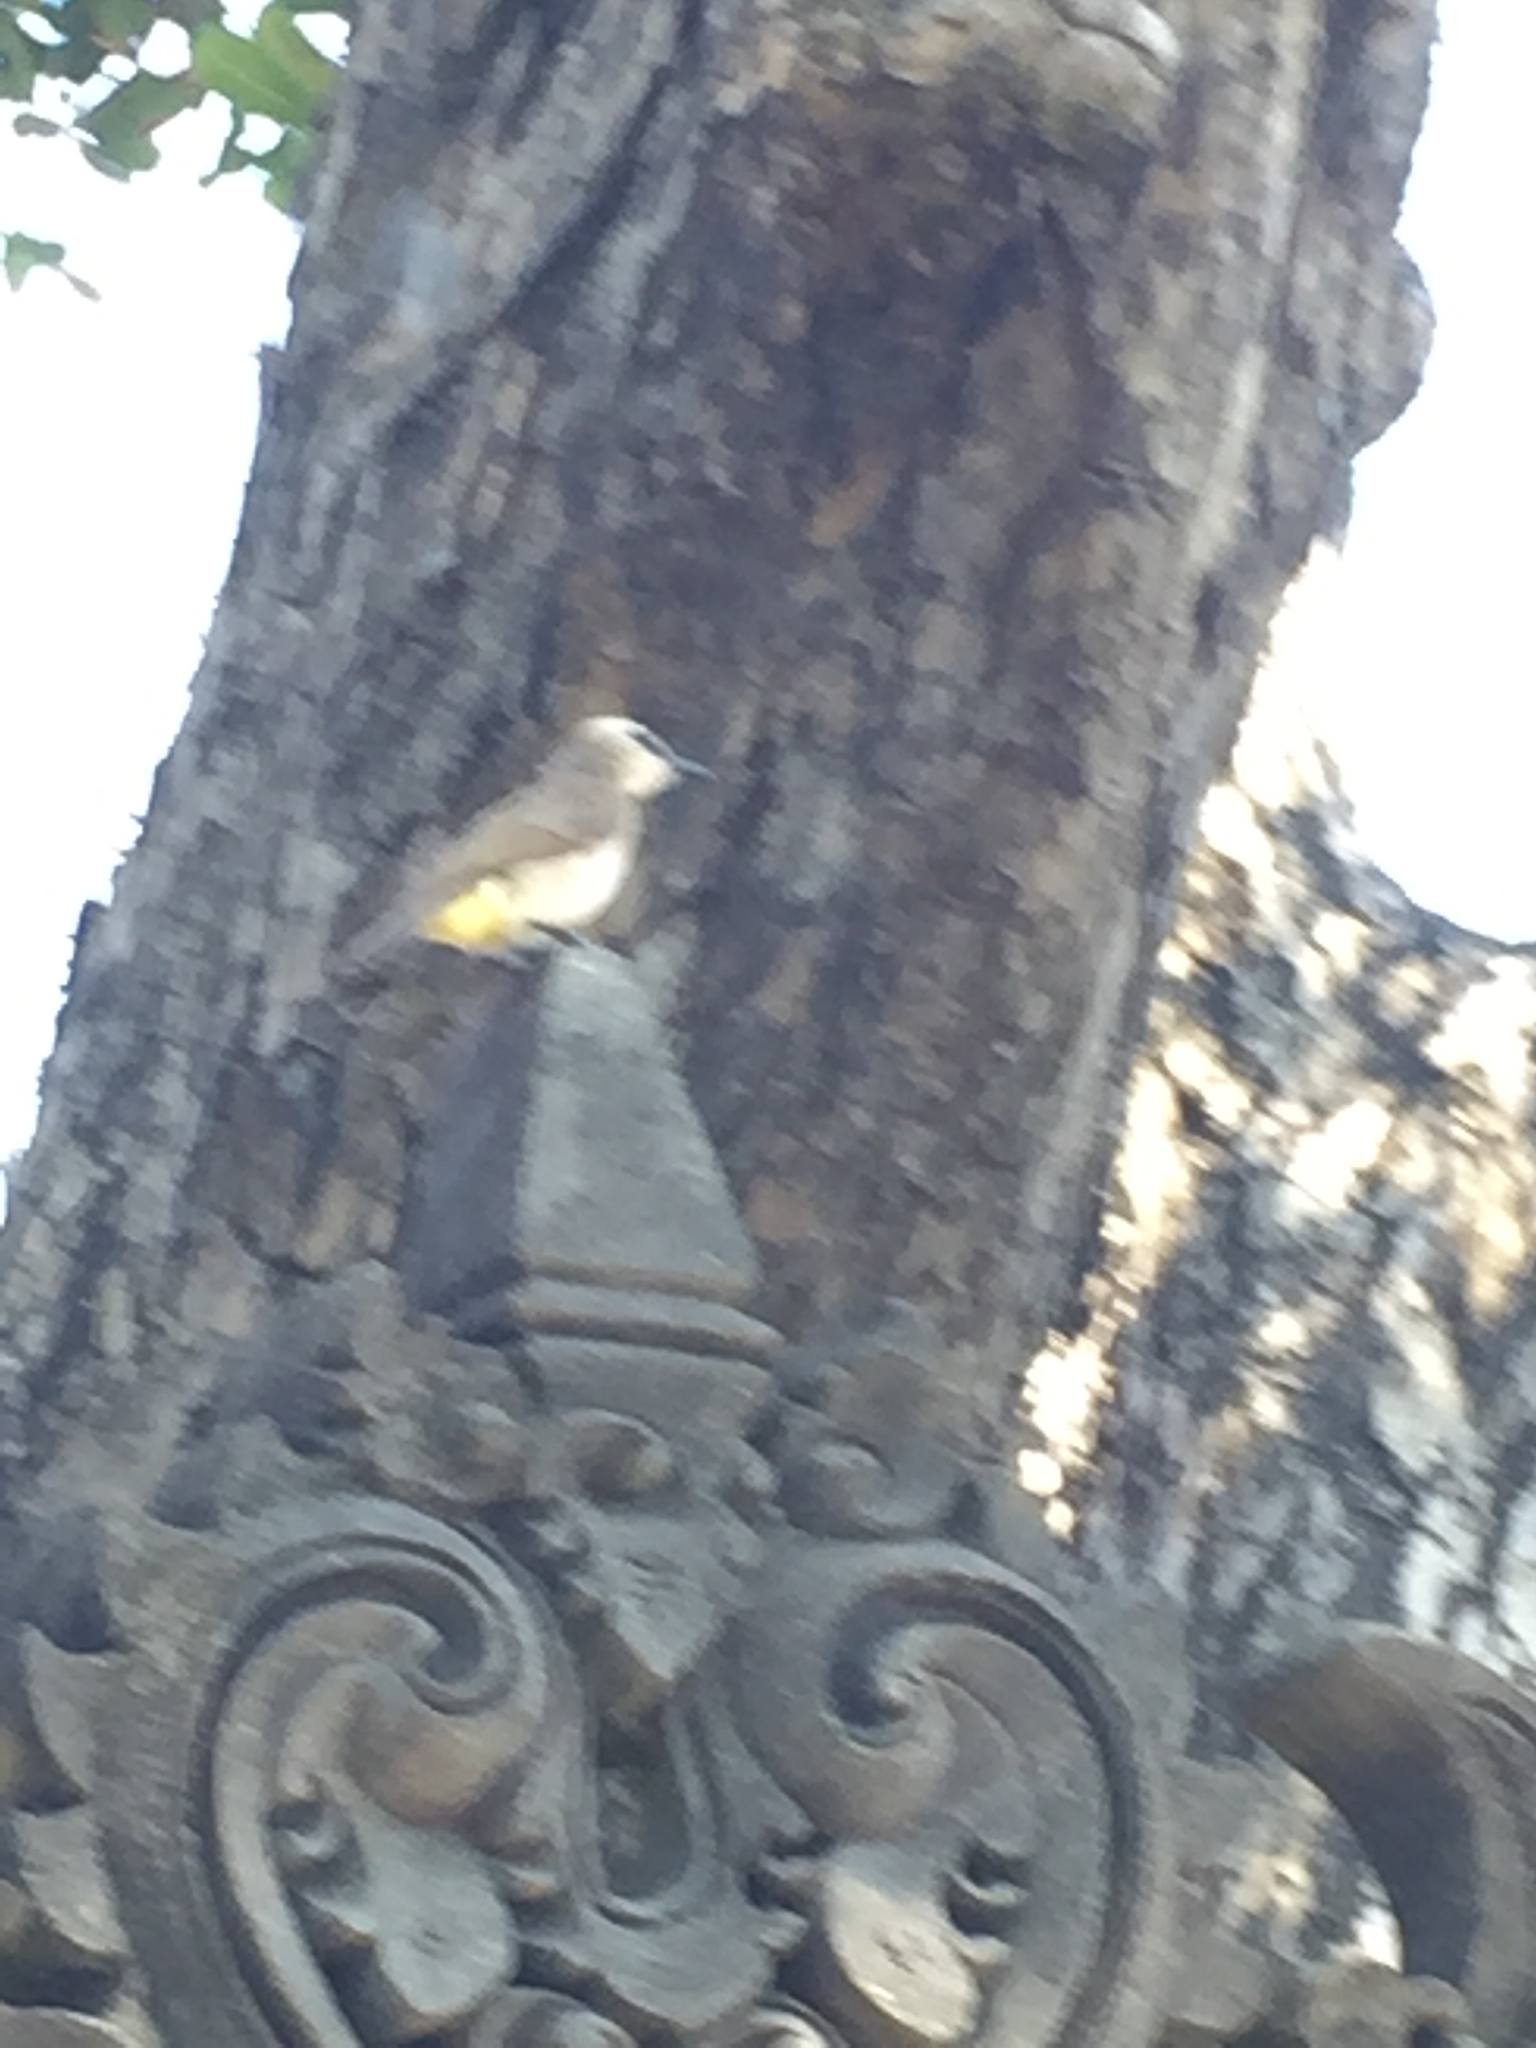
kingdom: Animalia
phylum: Chordata
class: Aves
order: Passeriformes
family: Pycnonotidae
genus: Pycnonotus
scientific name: Pycnonotus goiavier
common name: Yellow-vented bulbul
